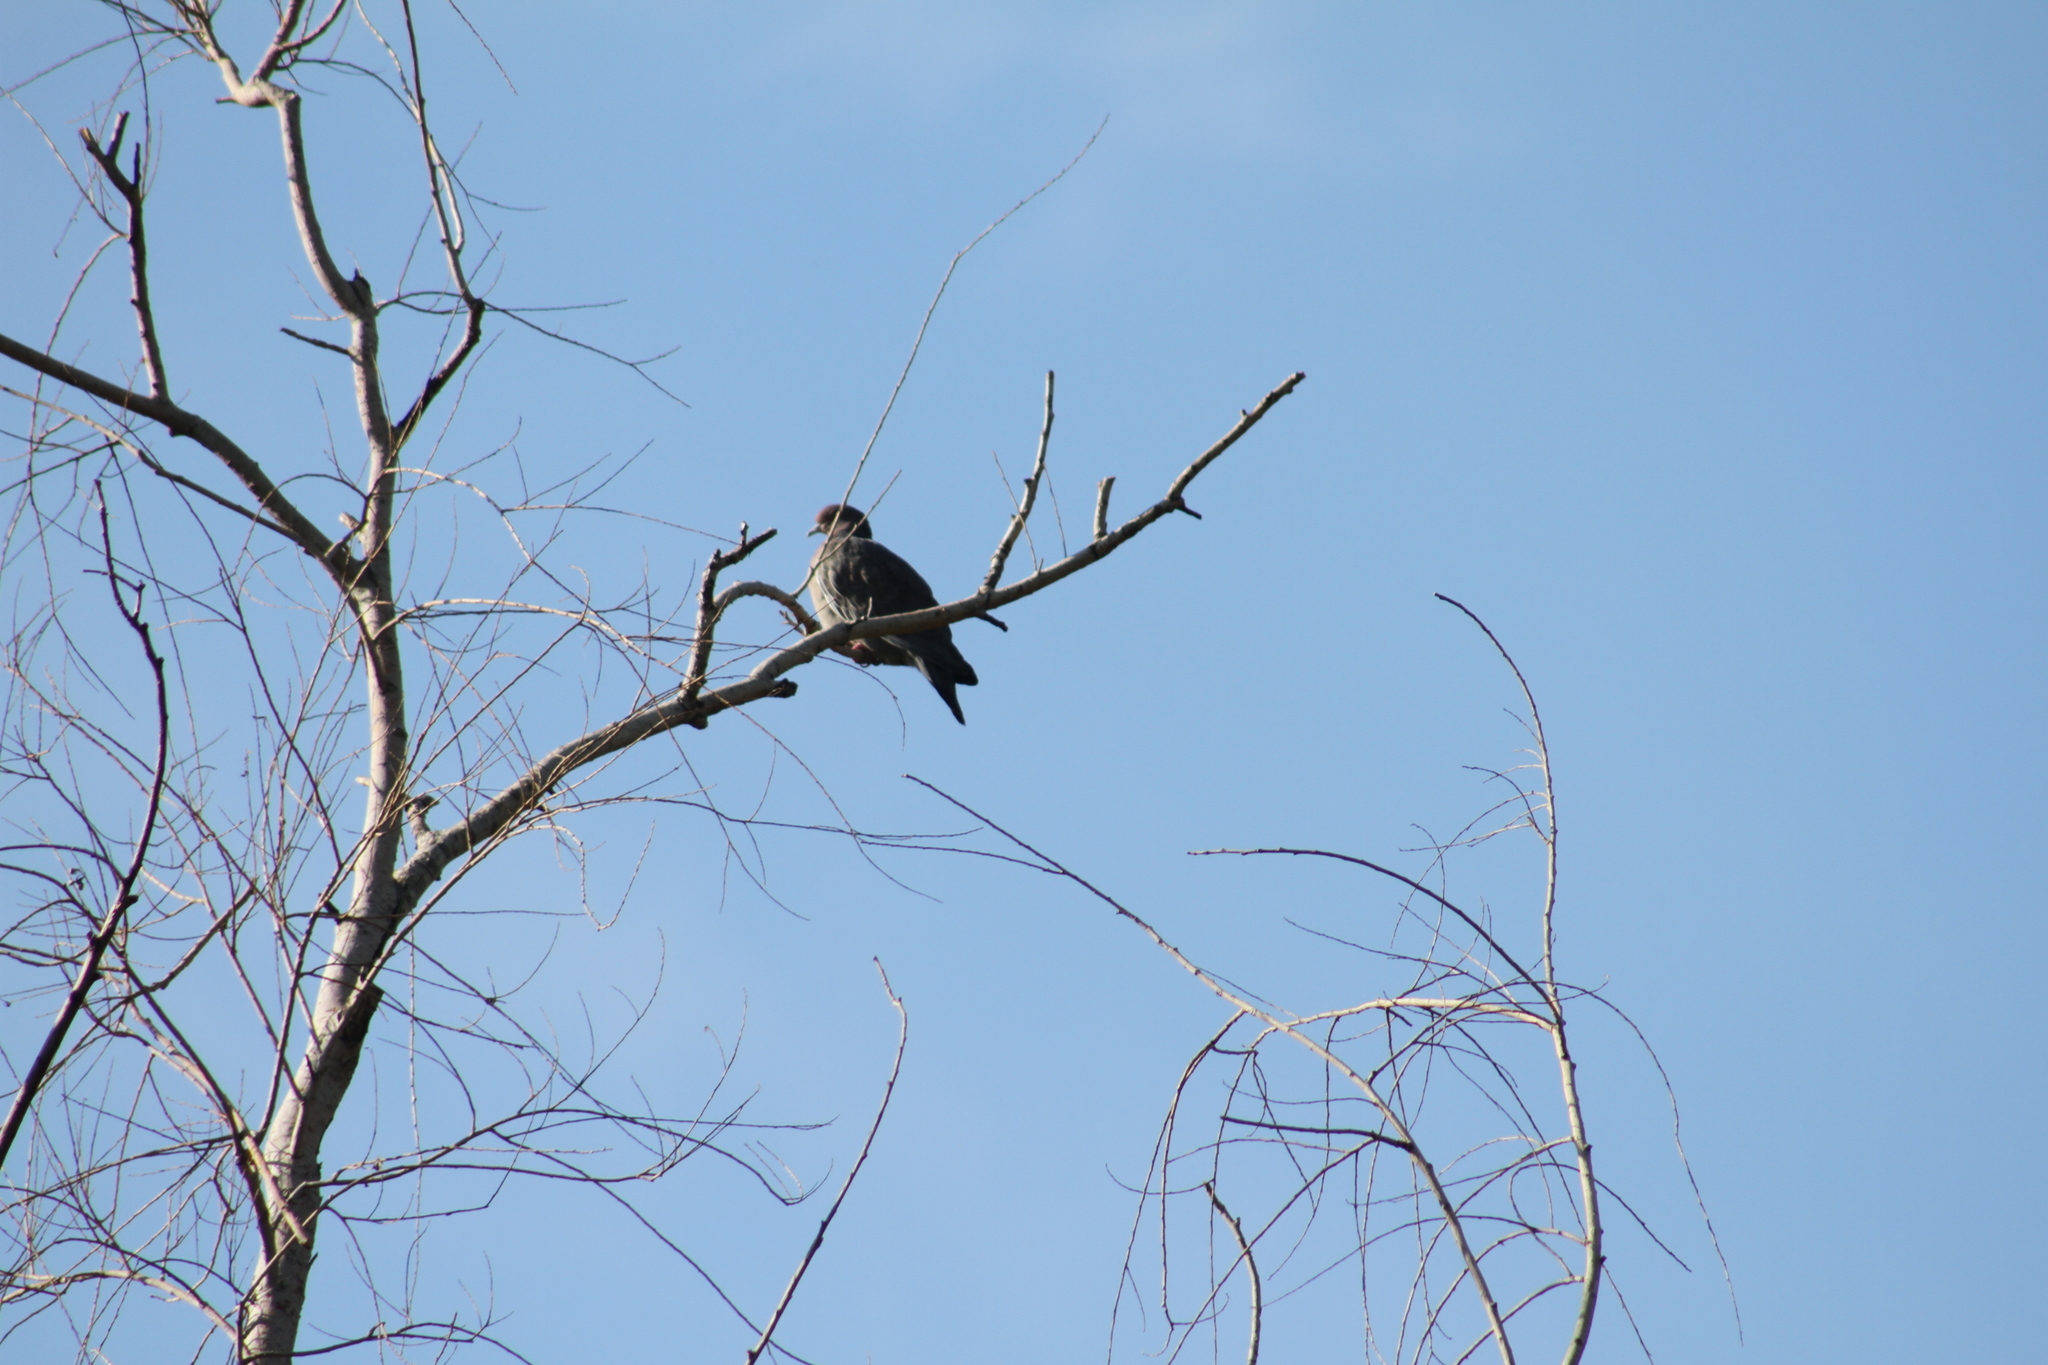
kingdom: Animalia
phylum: Chordata
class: Aves
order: Columbiformes
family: Columbidae
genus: Patagioenas
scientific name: Patagioenas picazuro
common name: Picazuro pigeon
